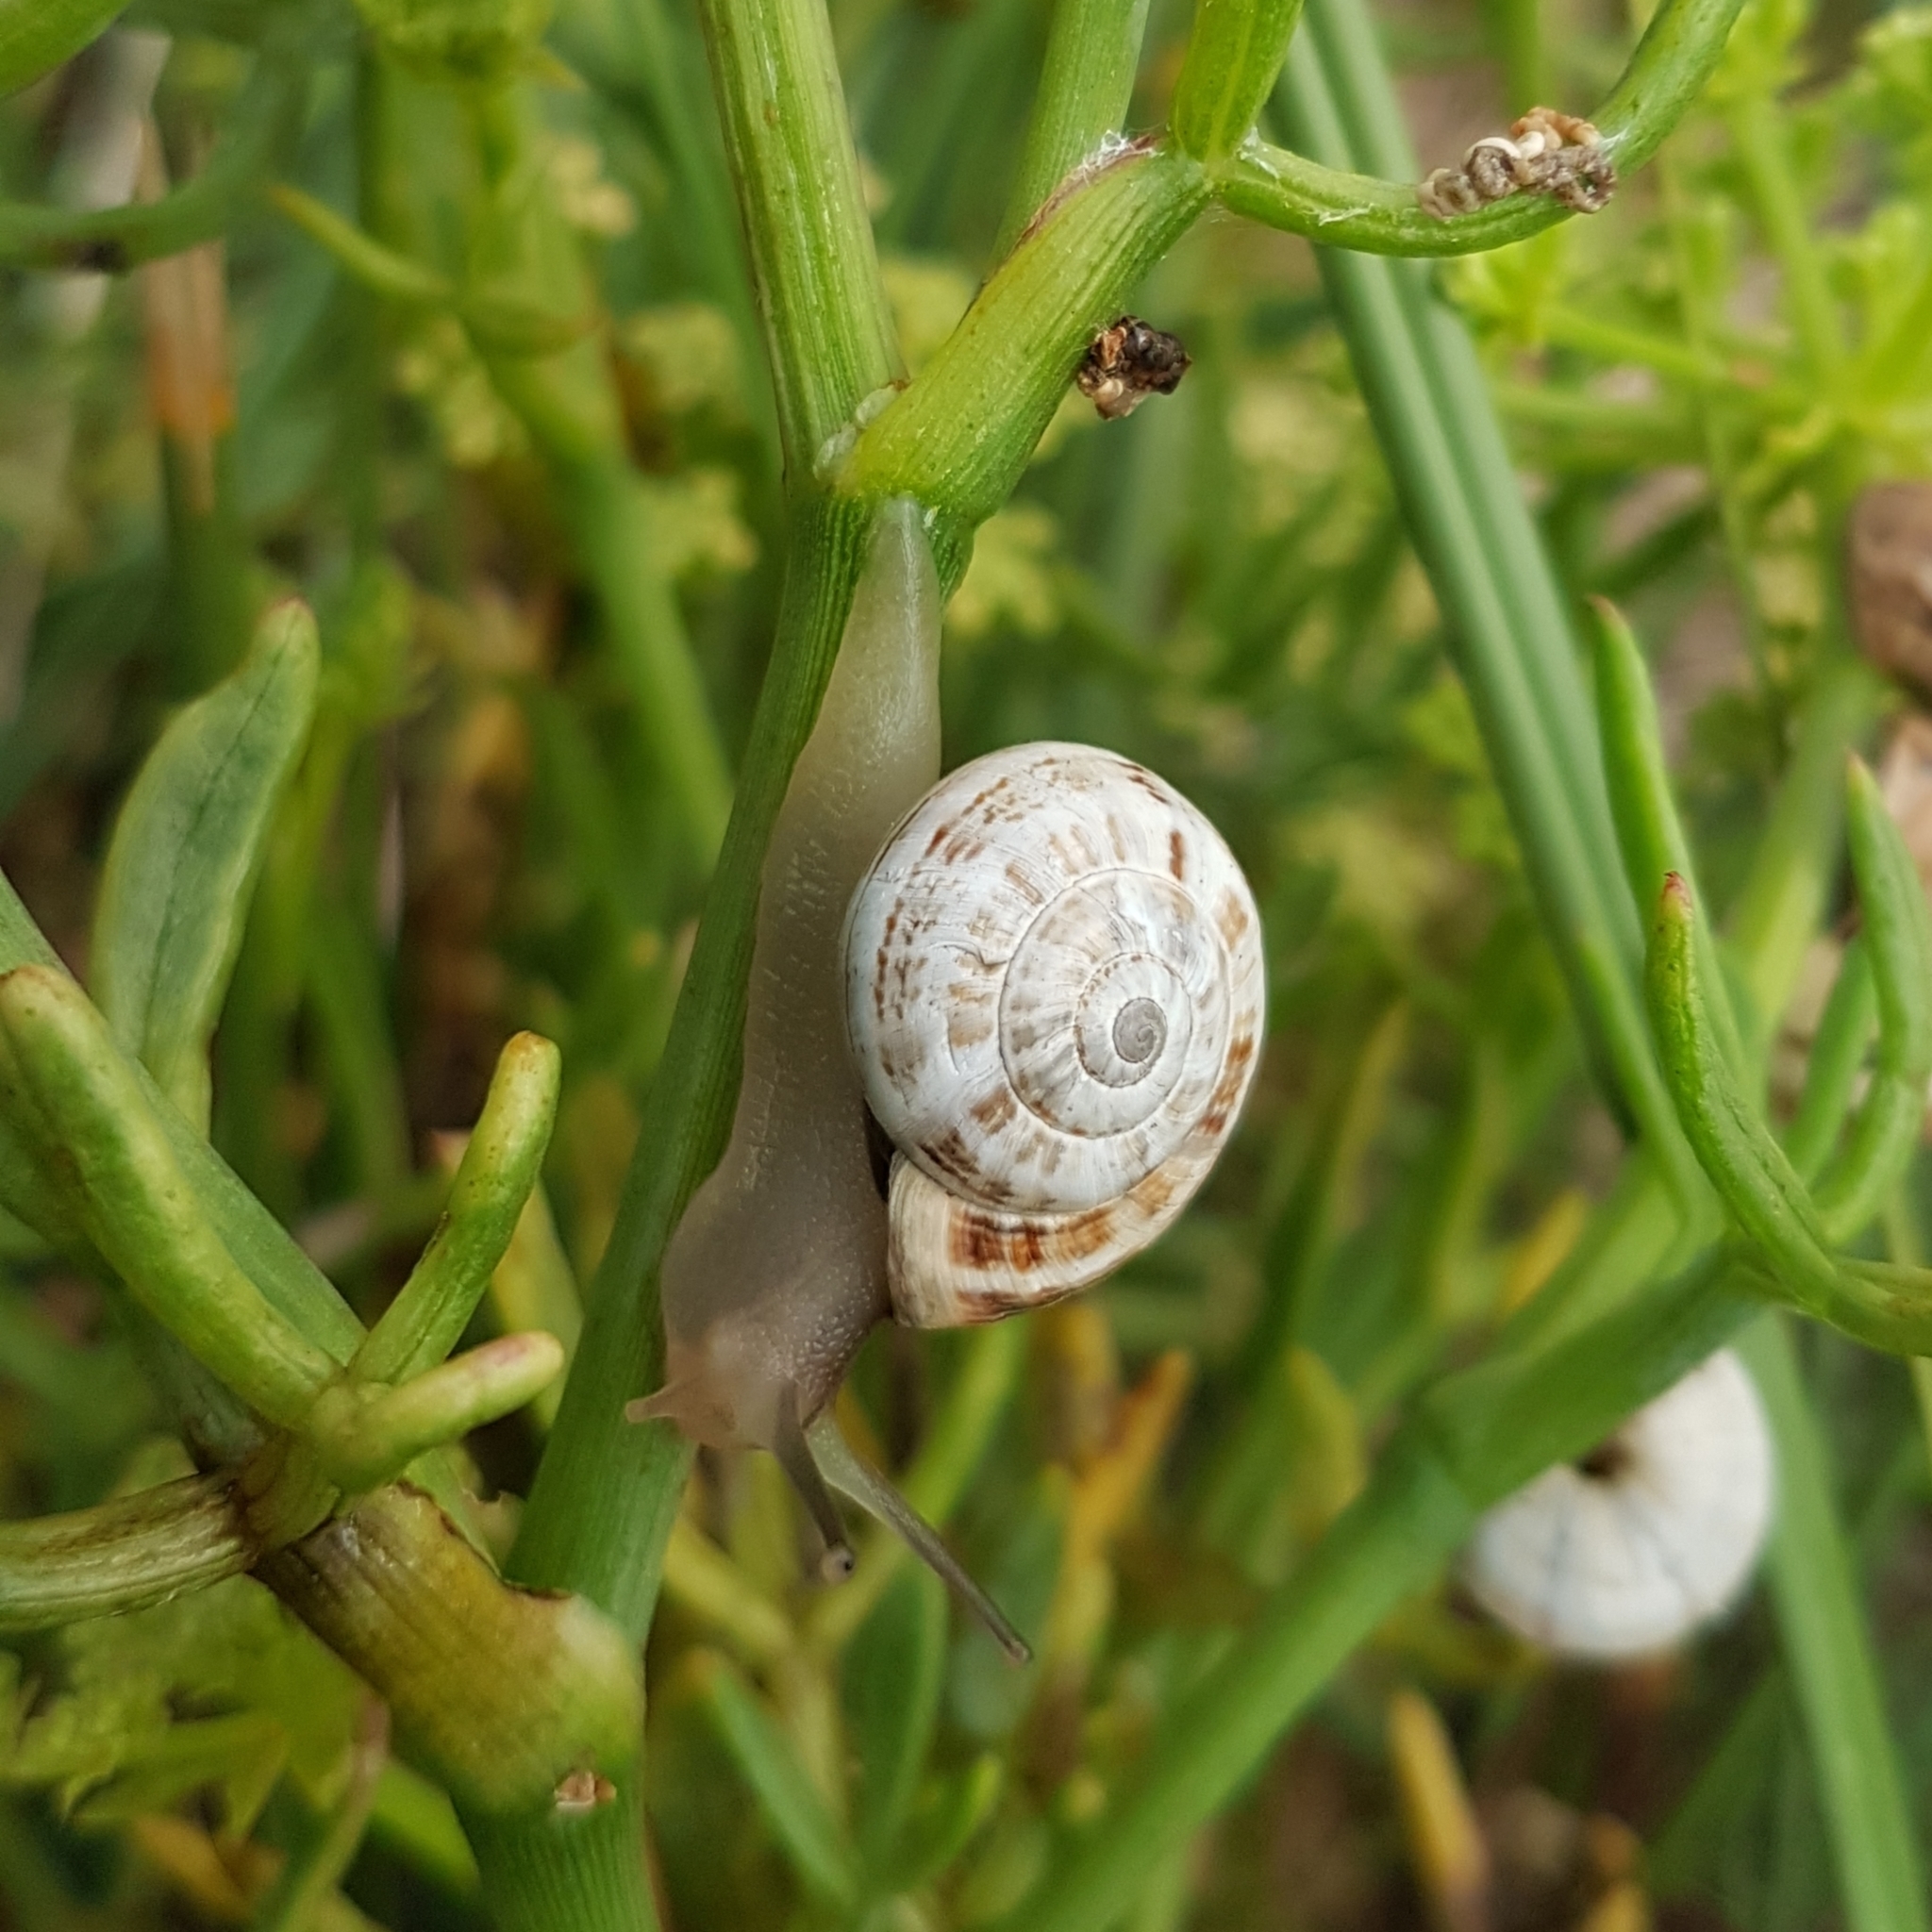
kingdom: Animalia
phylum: Mollusca
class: Gastropoda
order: Stylommatophora
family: Helicidae
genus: Theba
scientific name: Theba pisana
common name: White snail
